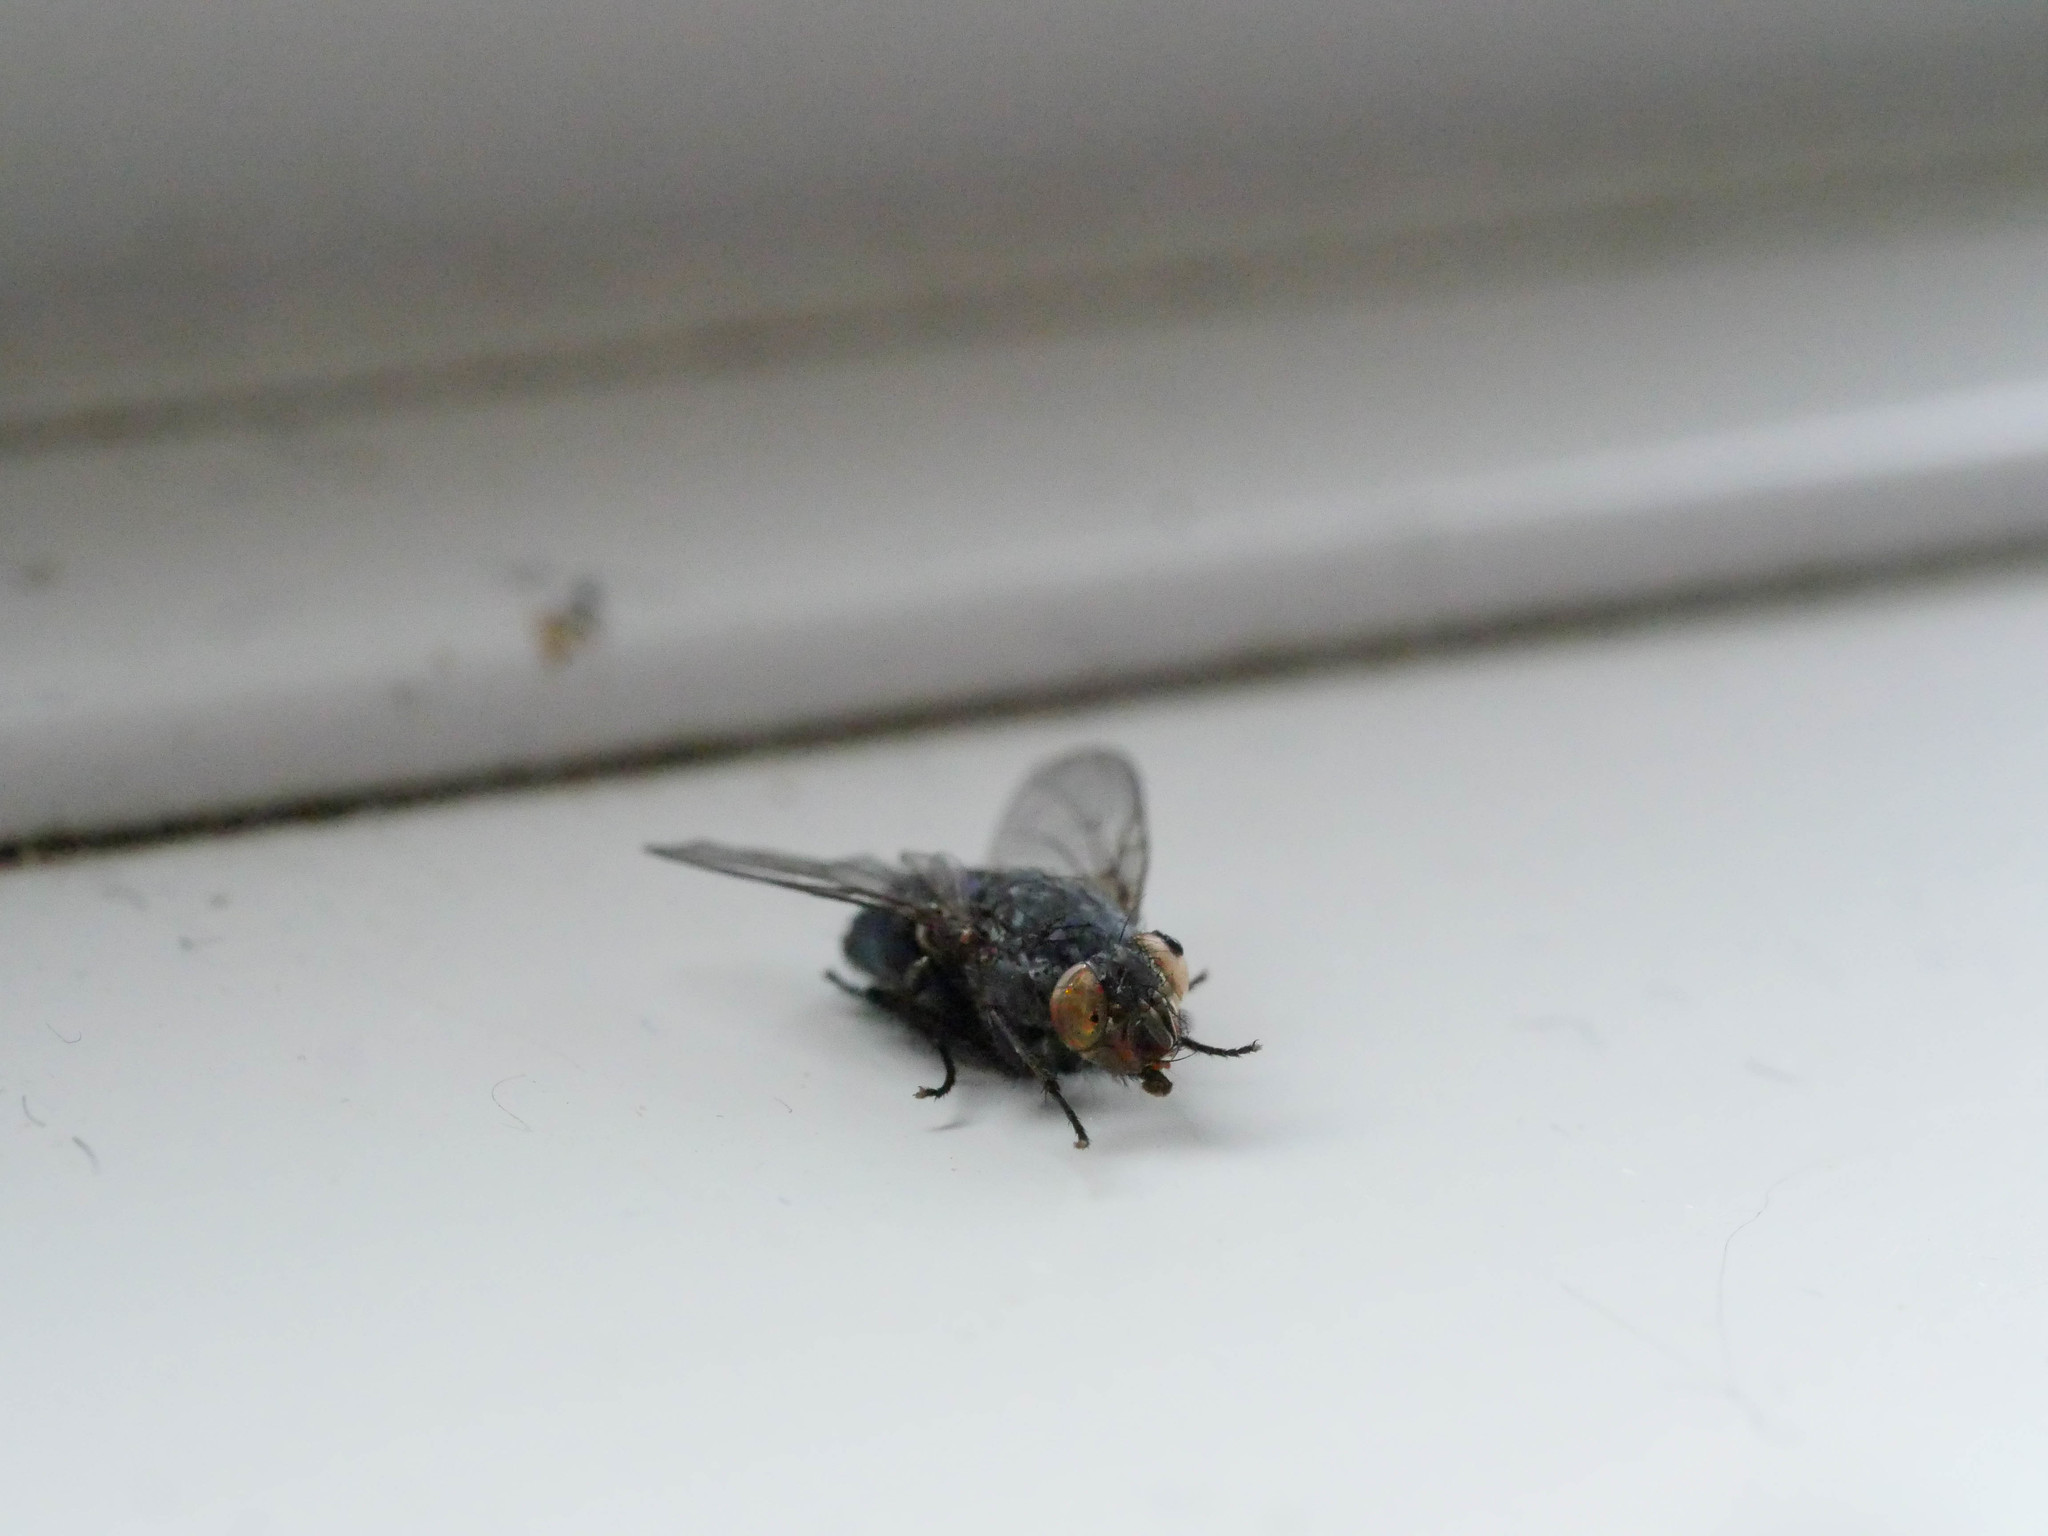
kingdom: Animalia
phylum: Arthropoda
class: Insecta
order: Diptera
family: Calliphoridae
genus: Calliphora
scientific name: Calliphora vicina
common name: Common blow flie
